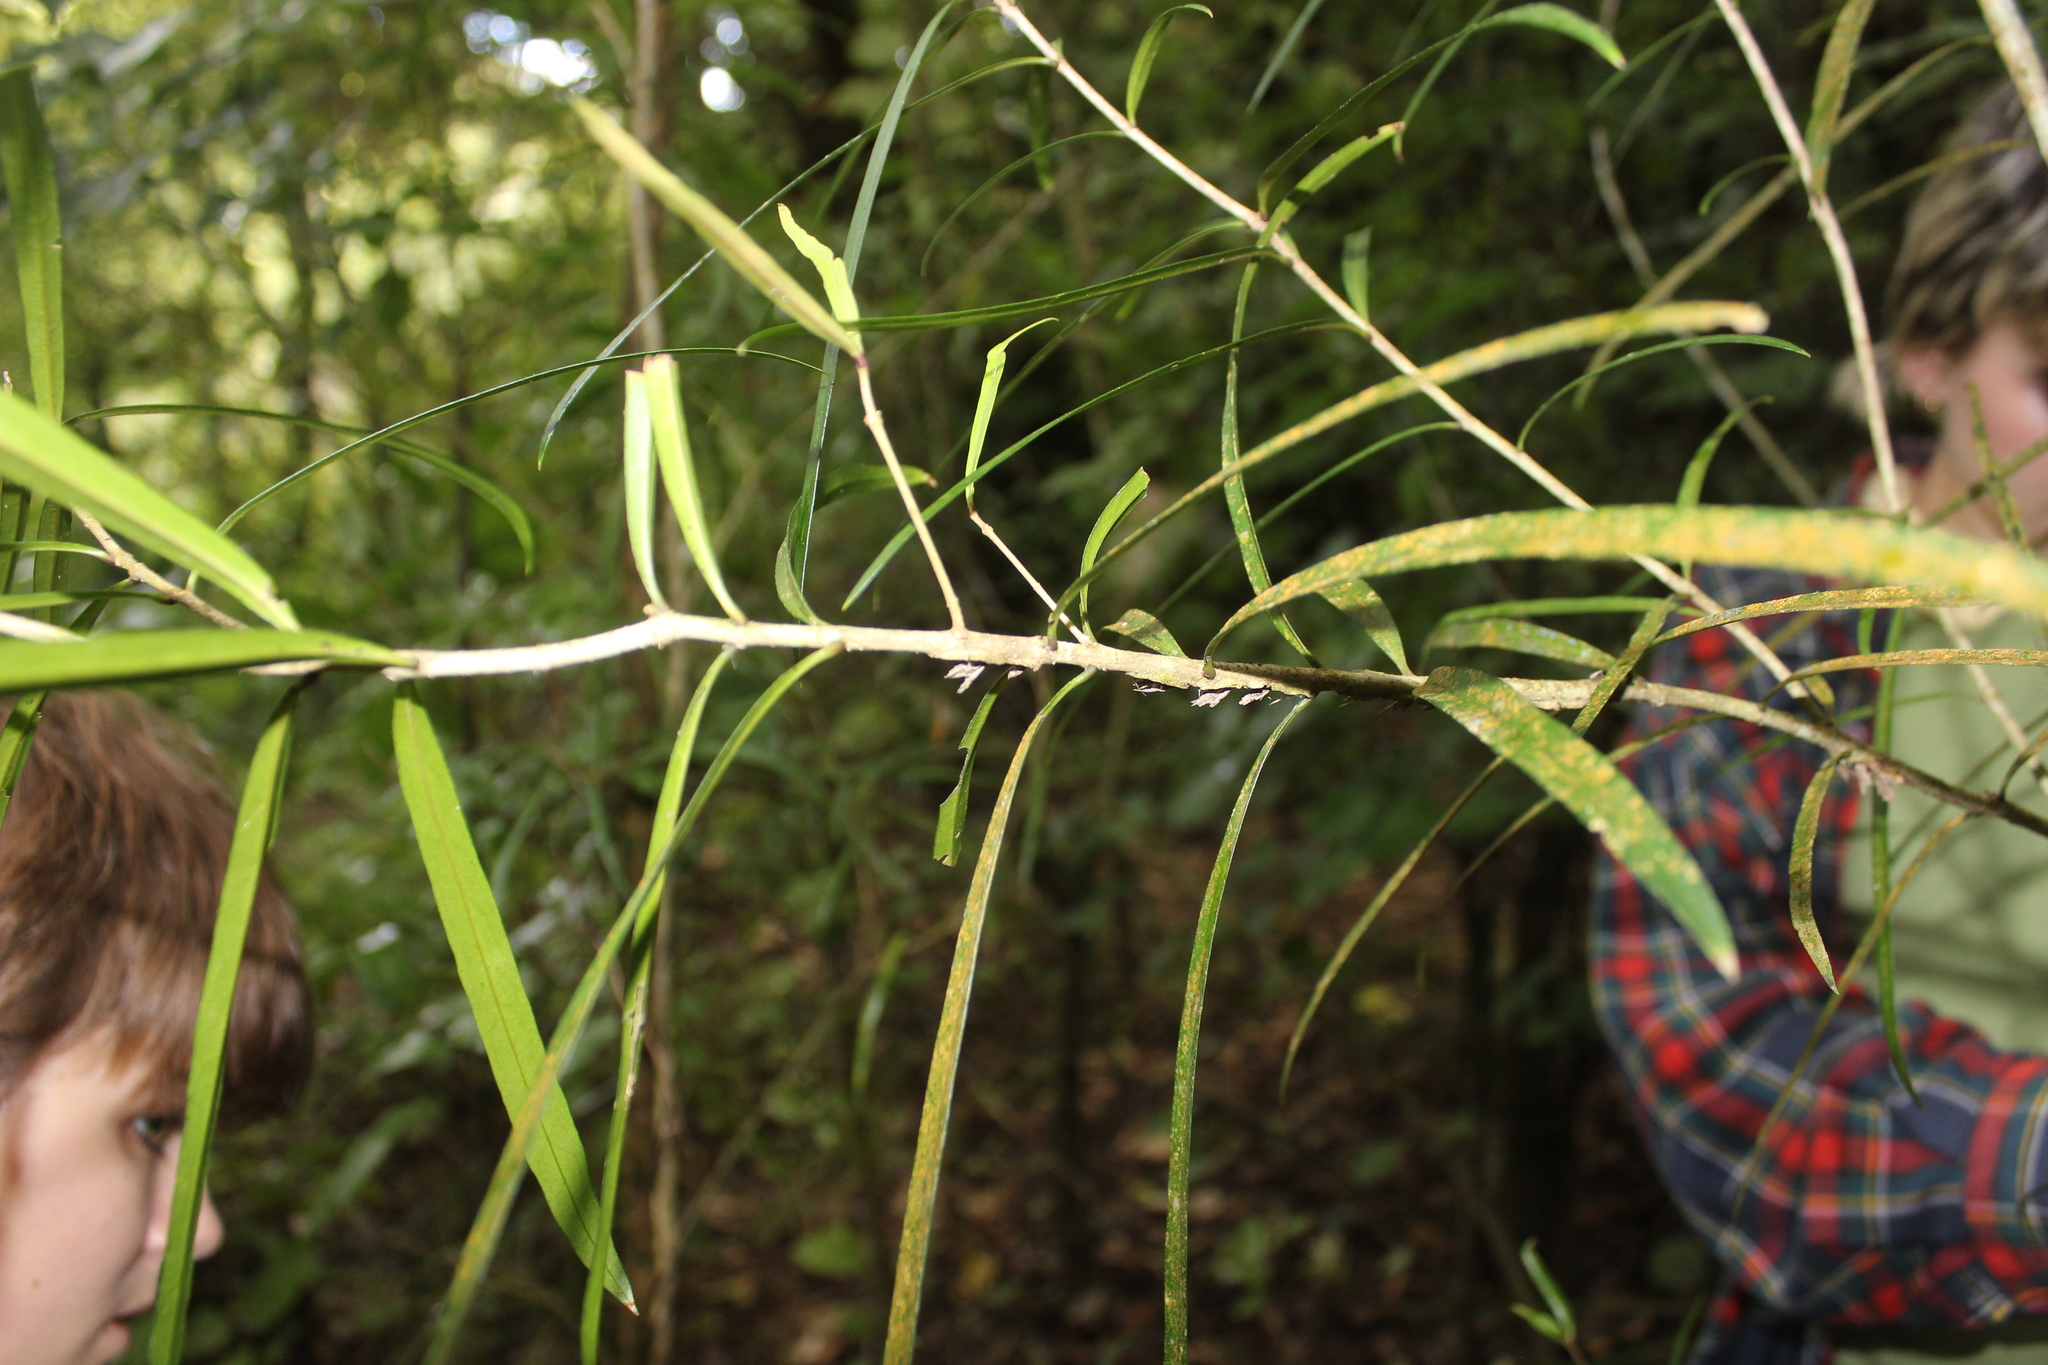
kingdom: Plantae
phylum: Tracheophyta
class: Magnoliopsida
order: Lamiales
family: Oleaceae
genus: Nestegis
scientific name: Nestegis lanceolata
